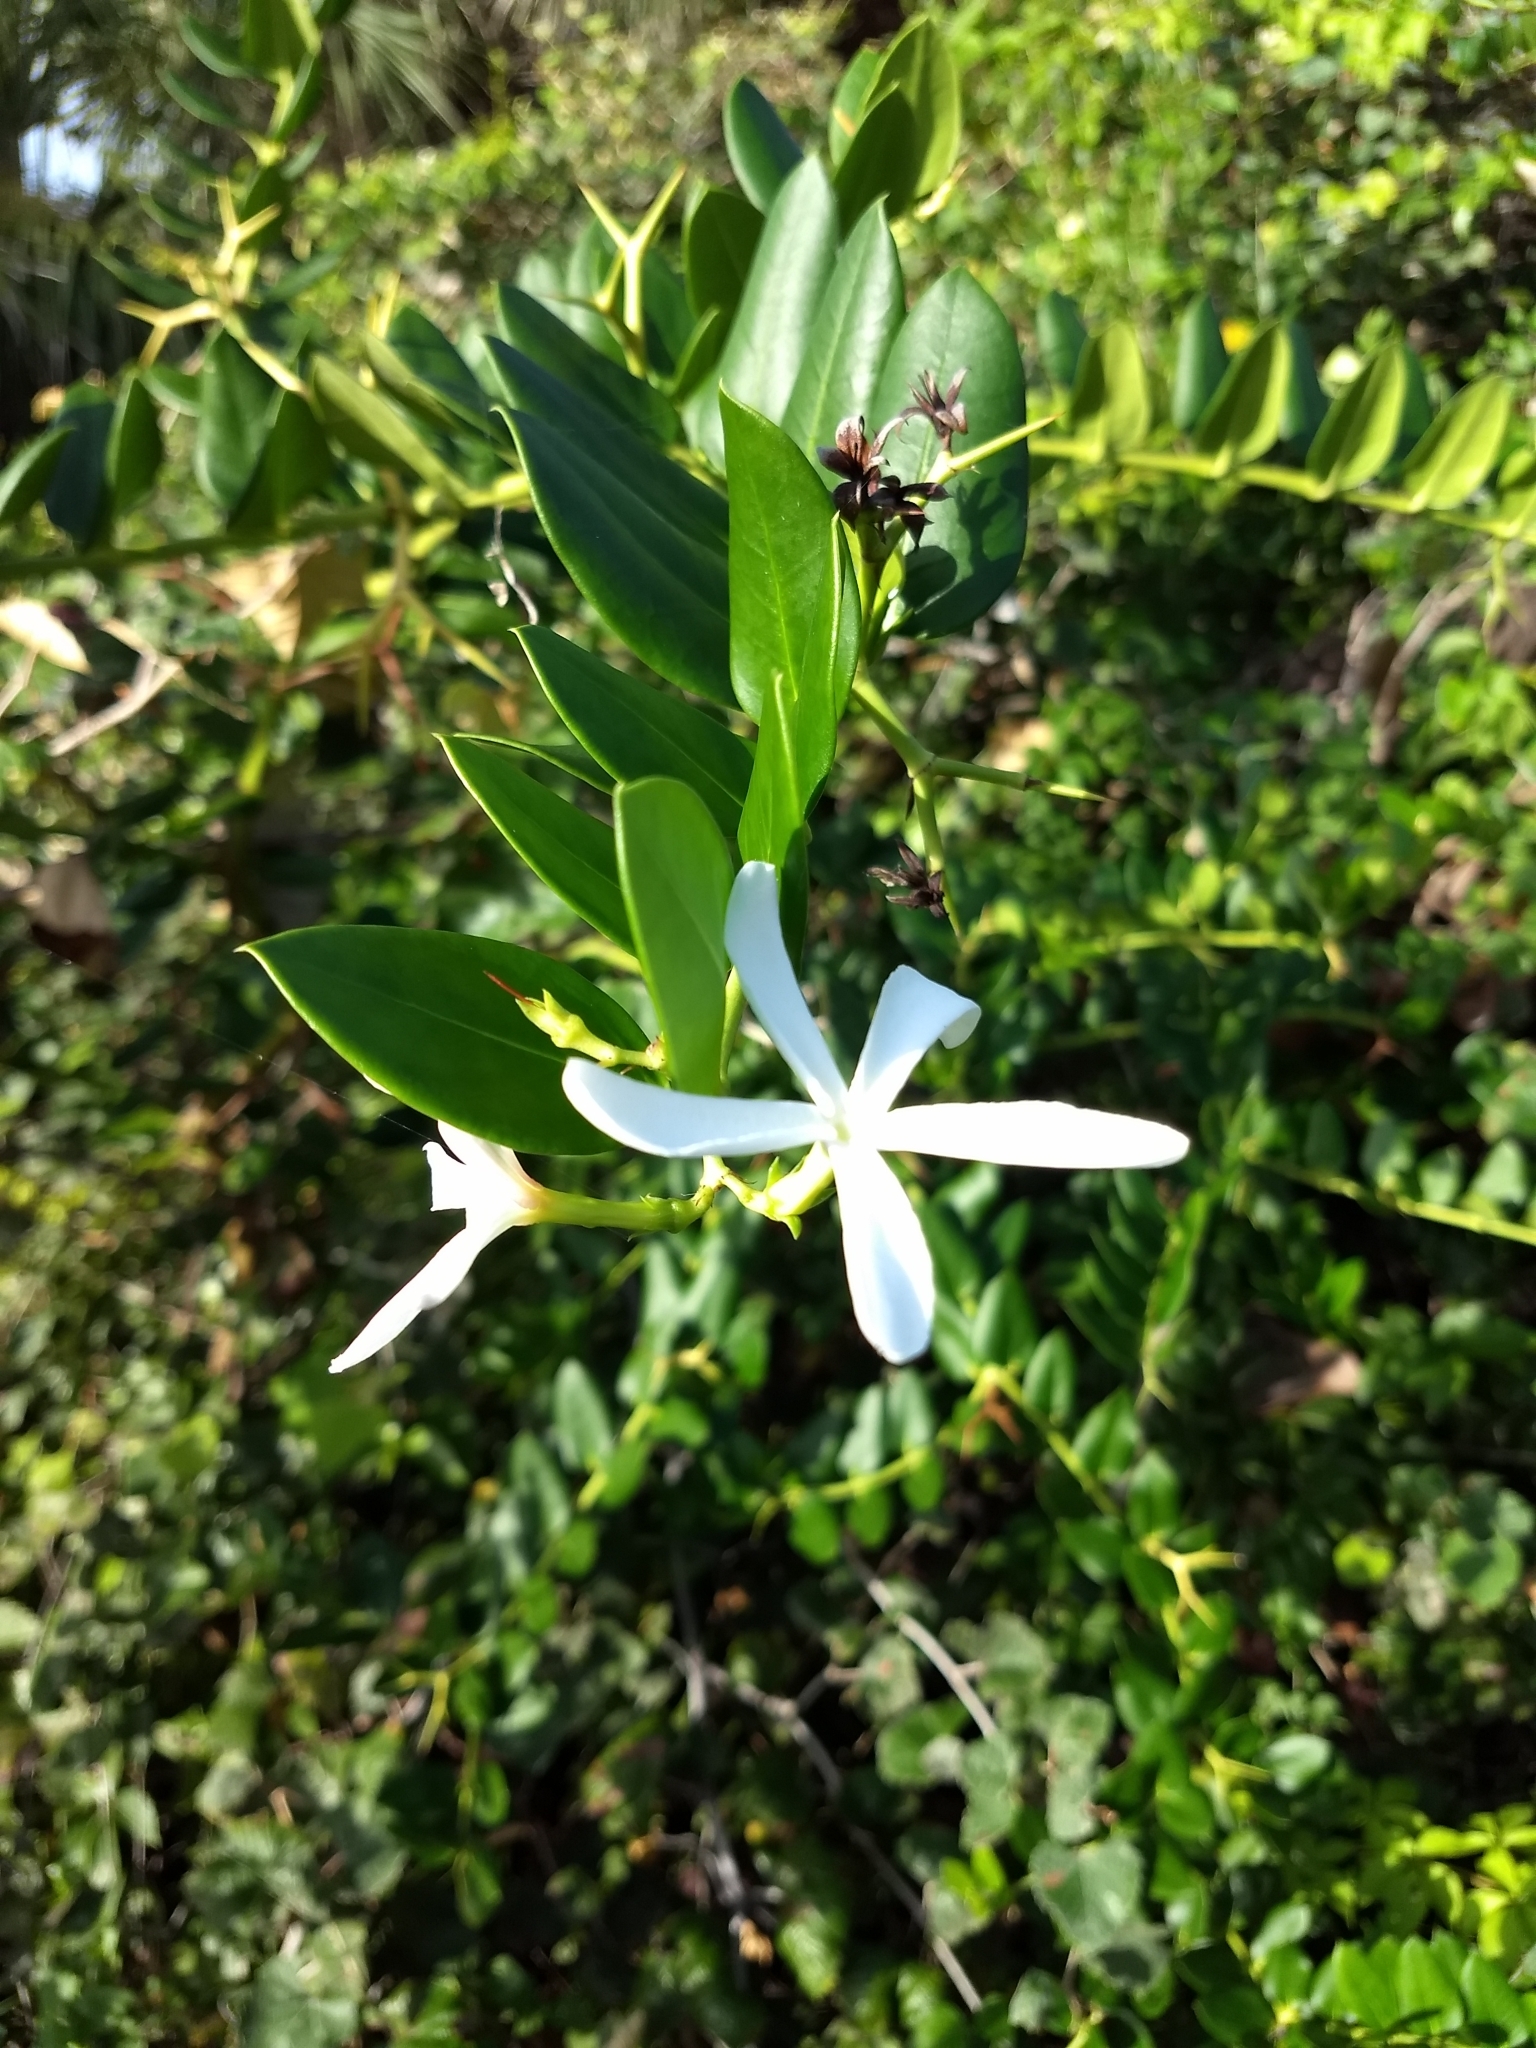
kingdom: Plantae
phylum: Tracheophyta
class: Magnoliopsida
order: Gentianales
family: Apocynaceae
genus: Carissa
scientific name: Carissa macrocarpa
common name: Natal plum
